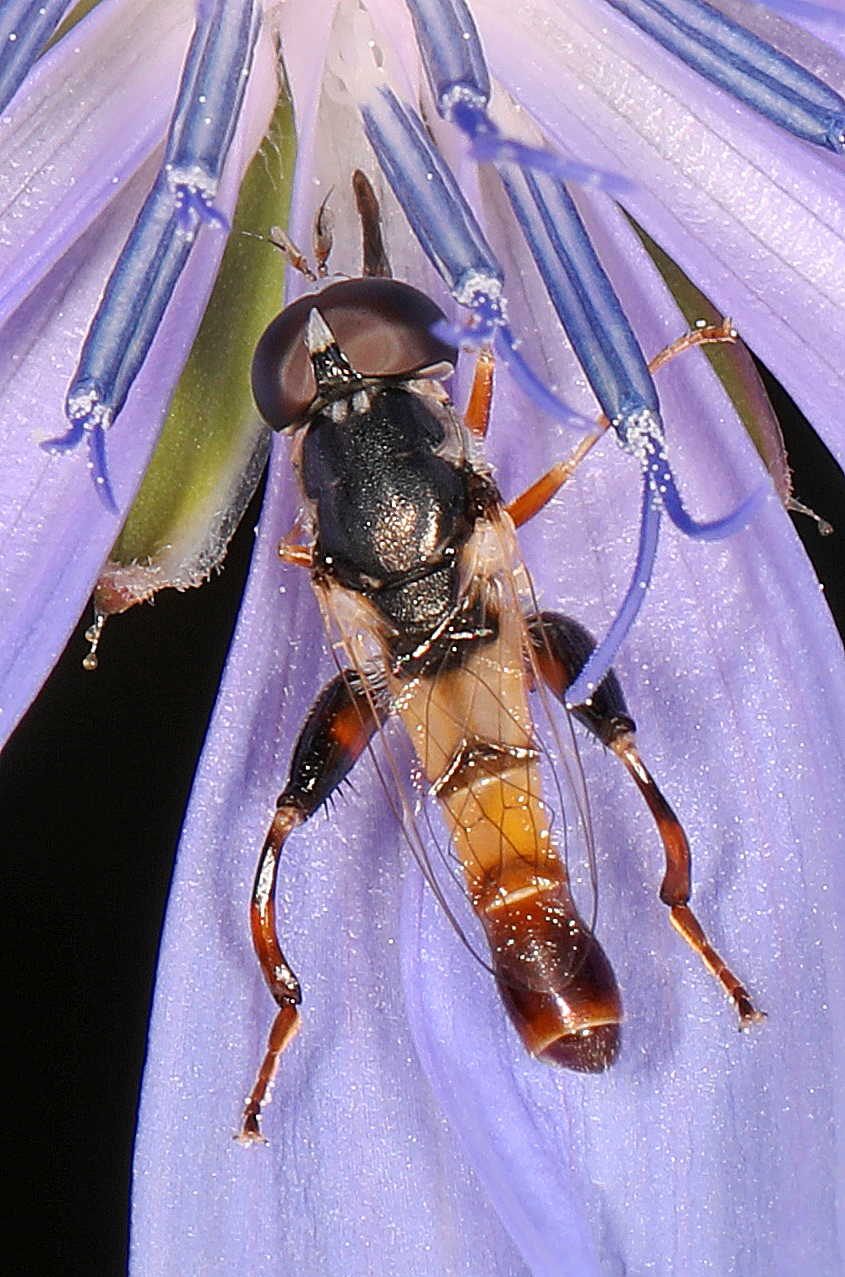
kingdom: Animalia
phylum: Arthropoda
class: Insecta
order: Diptera
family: Syrphidae
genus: Syritta
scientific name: Syritta flaviventris
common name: Syrphid fly
